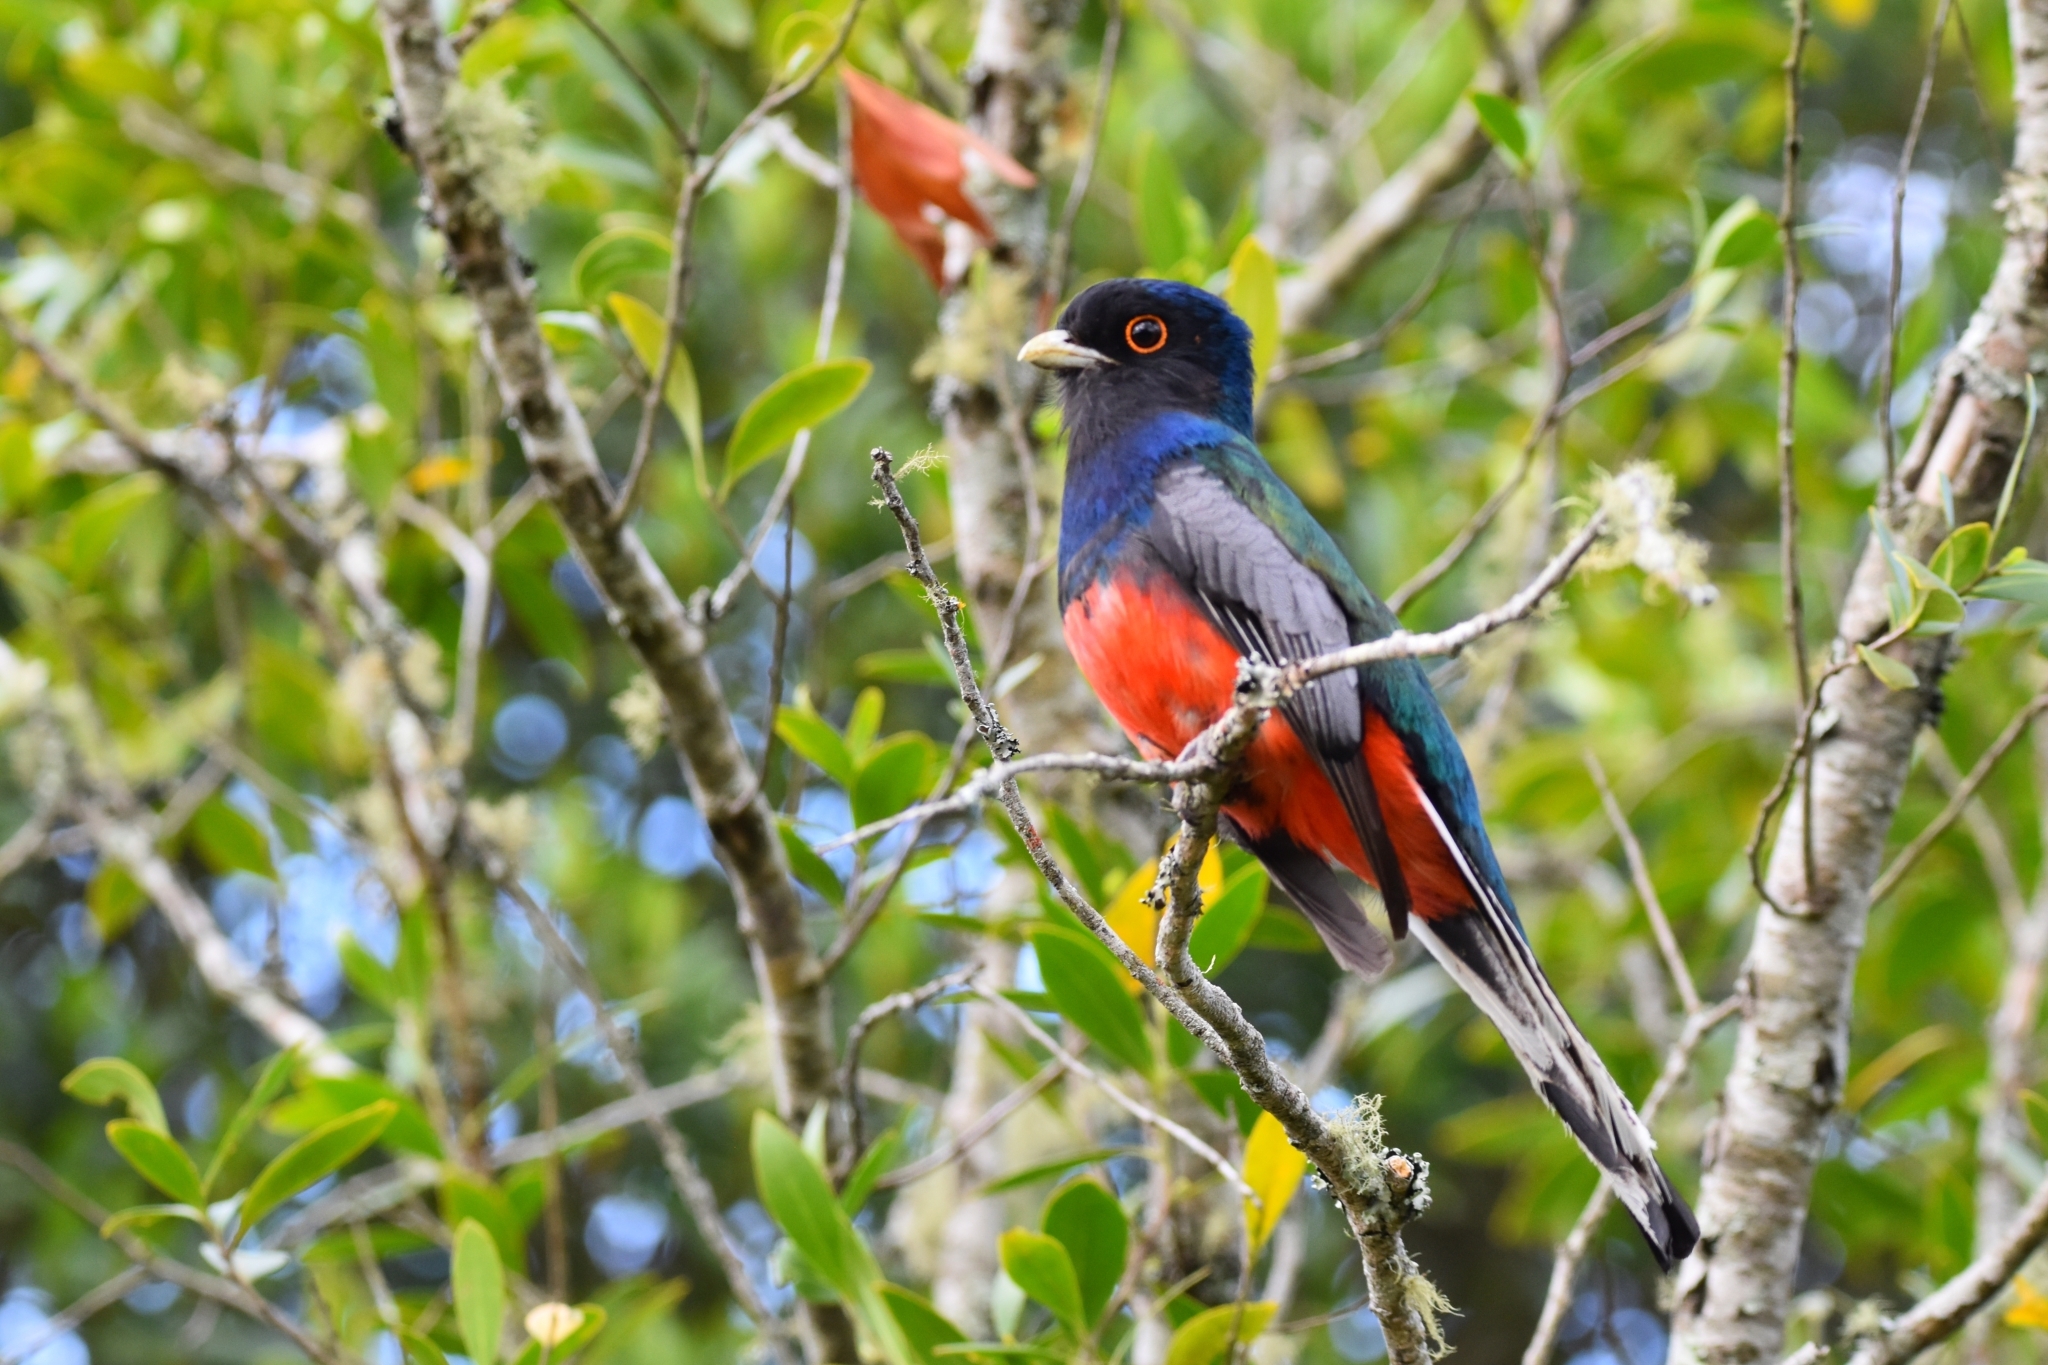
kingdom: Animalia
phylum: Chordata
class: Aves
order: Trogoniformes
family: Trogonidae
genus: Trogon
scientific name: Trogon surrucura
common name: Surucua trogon
